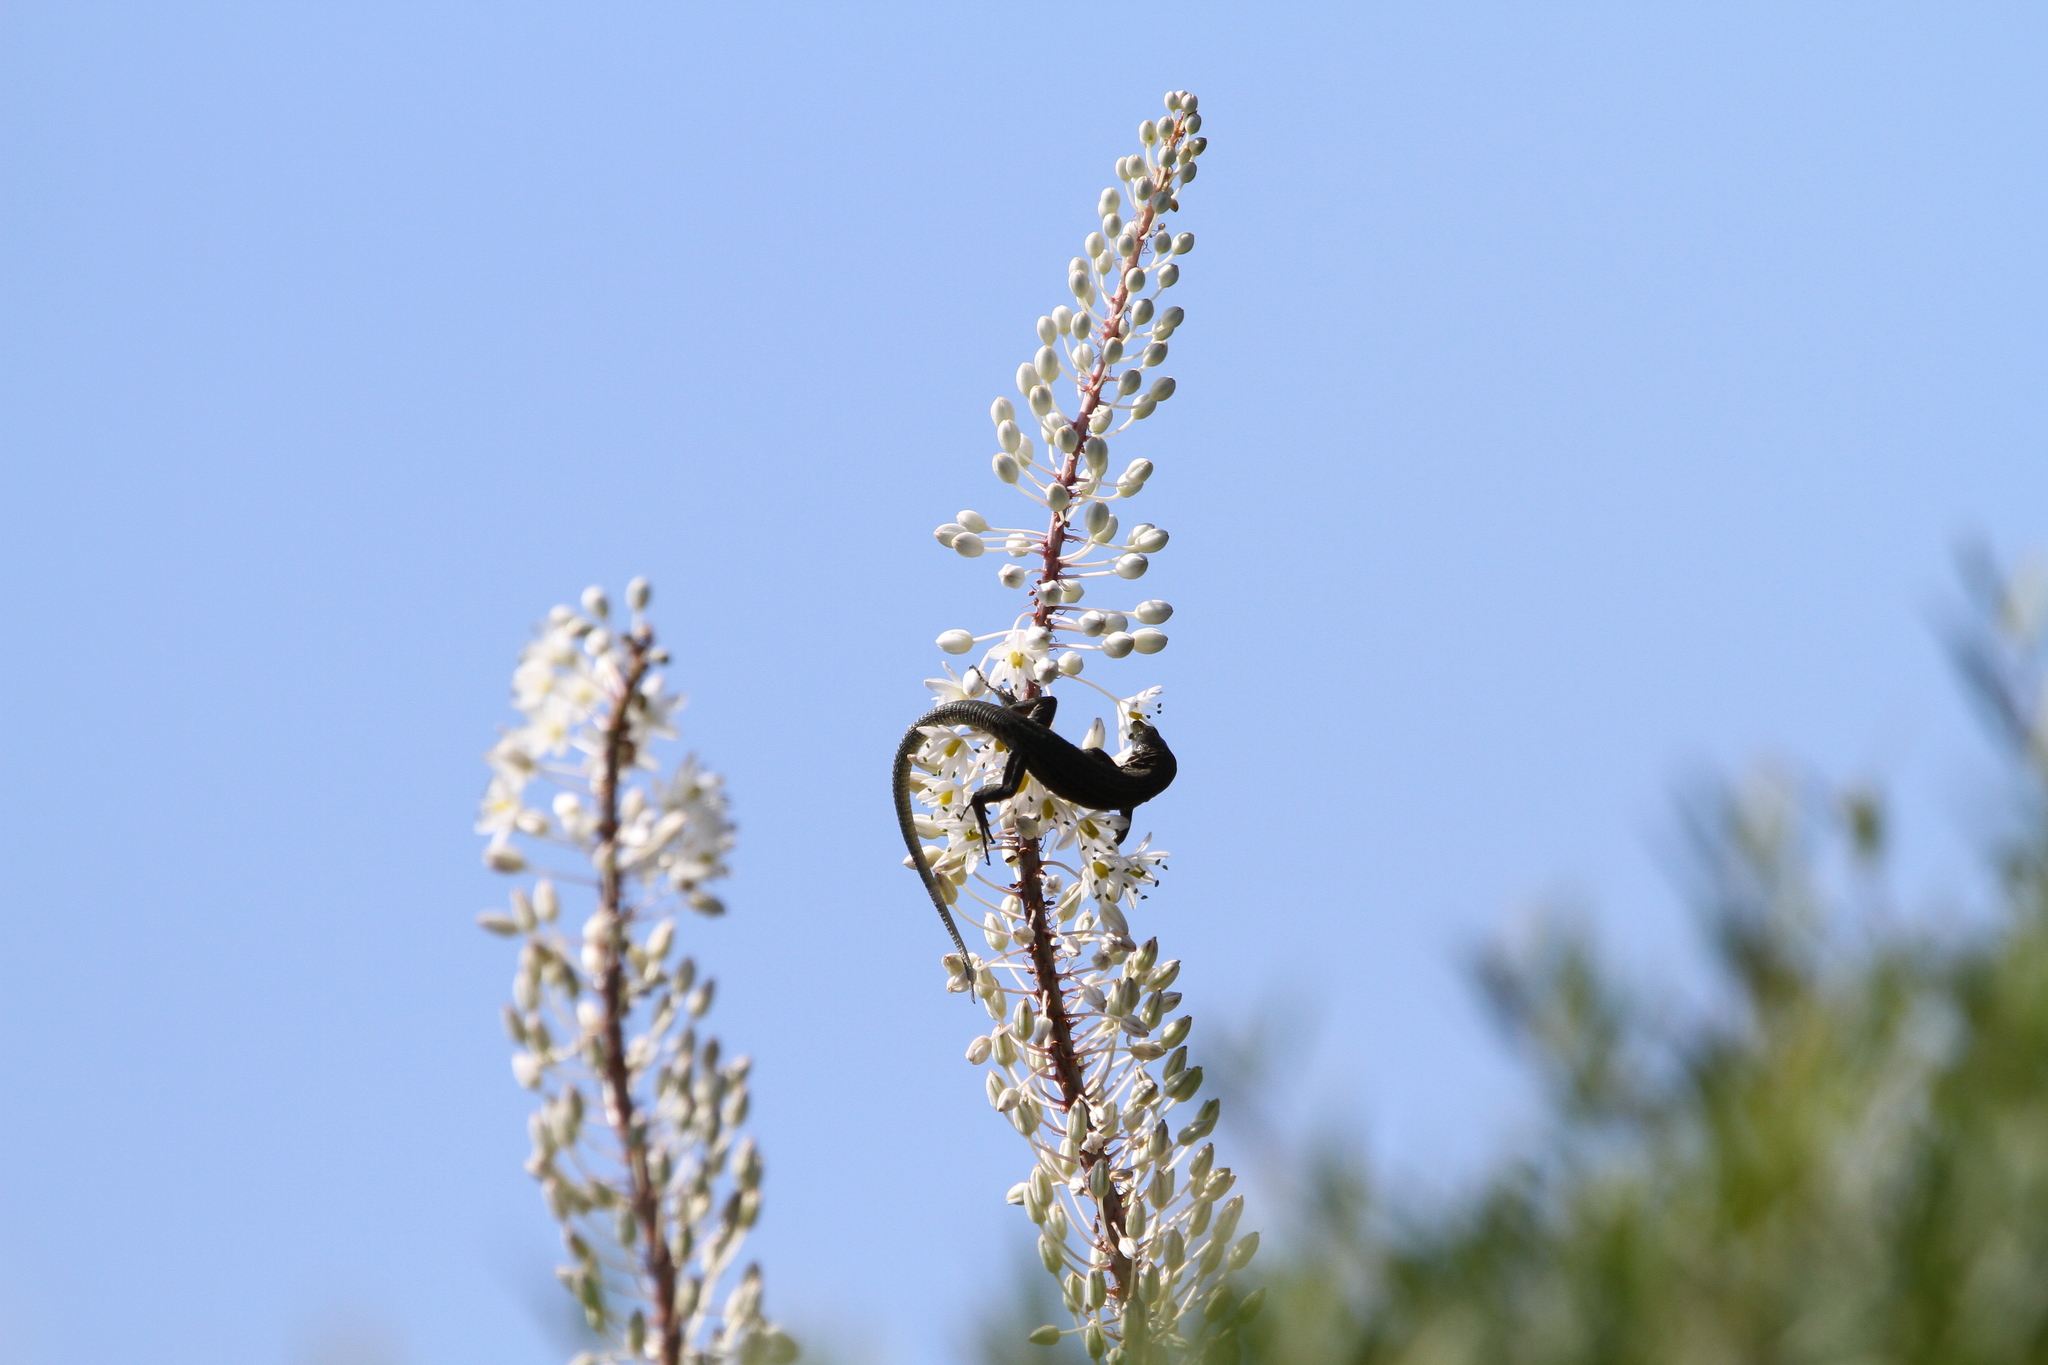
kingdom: Animalia
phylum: Chordata
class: Squamata
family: Lacertidae
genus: Podarcis
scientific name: Podarcis lilfordi
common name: Belearic lizard
